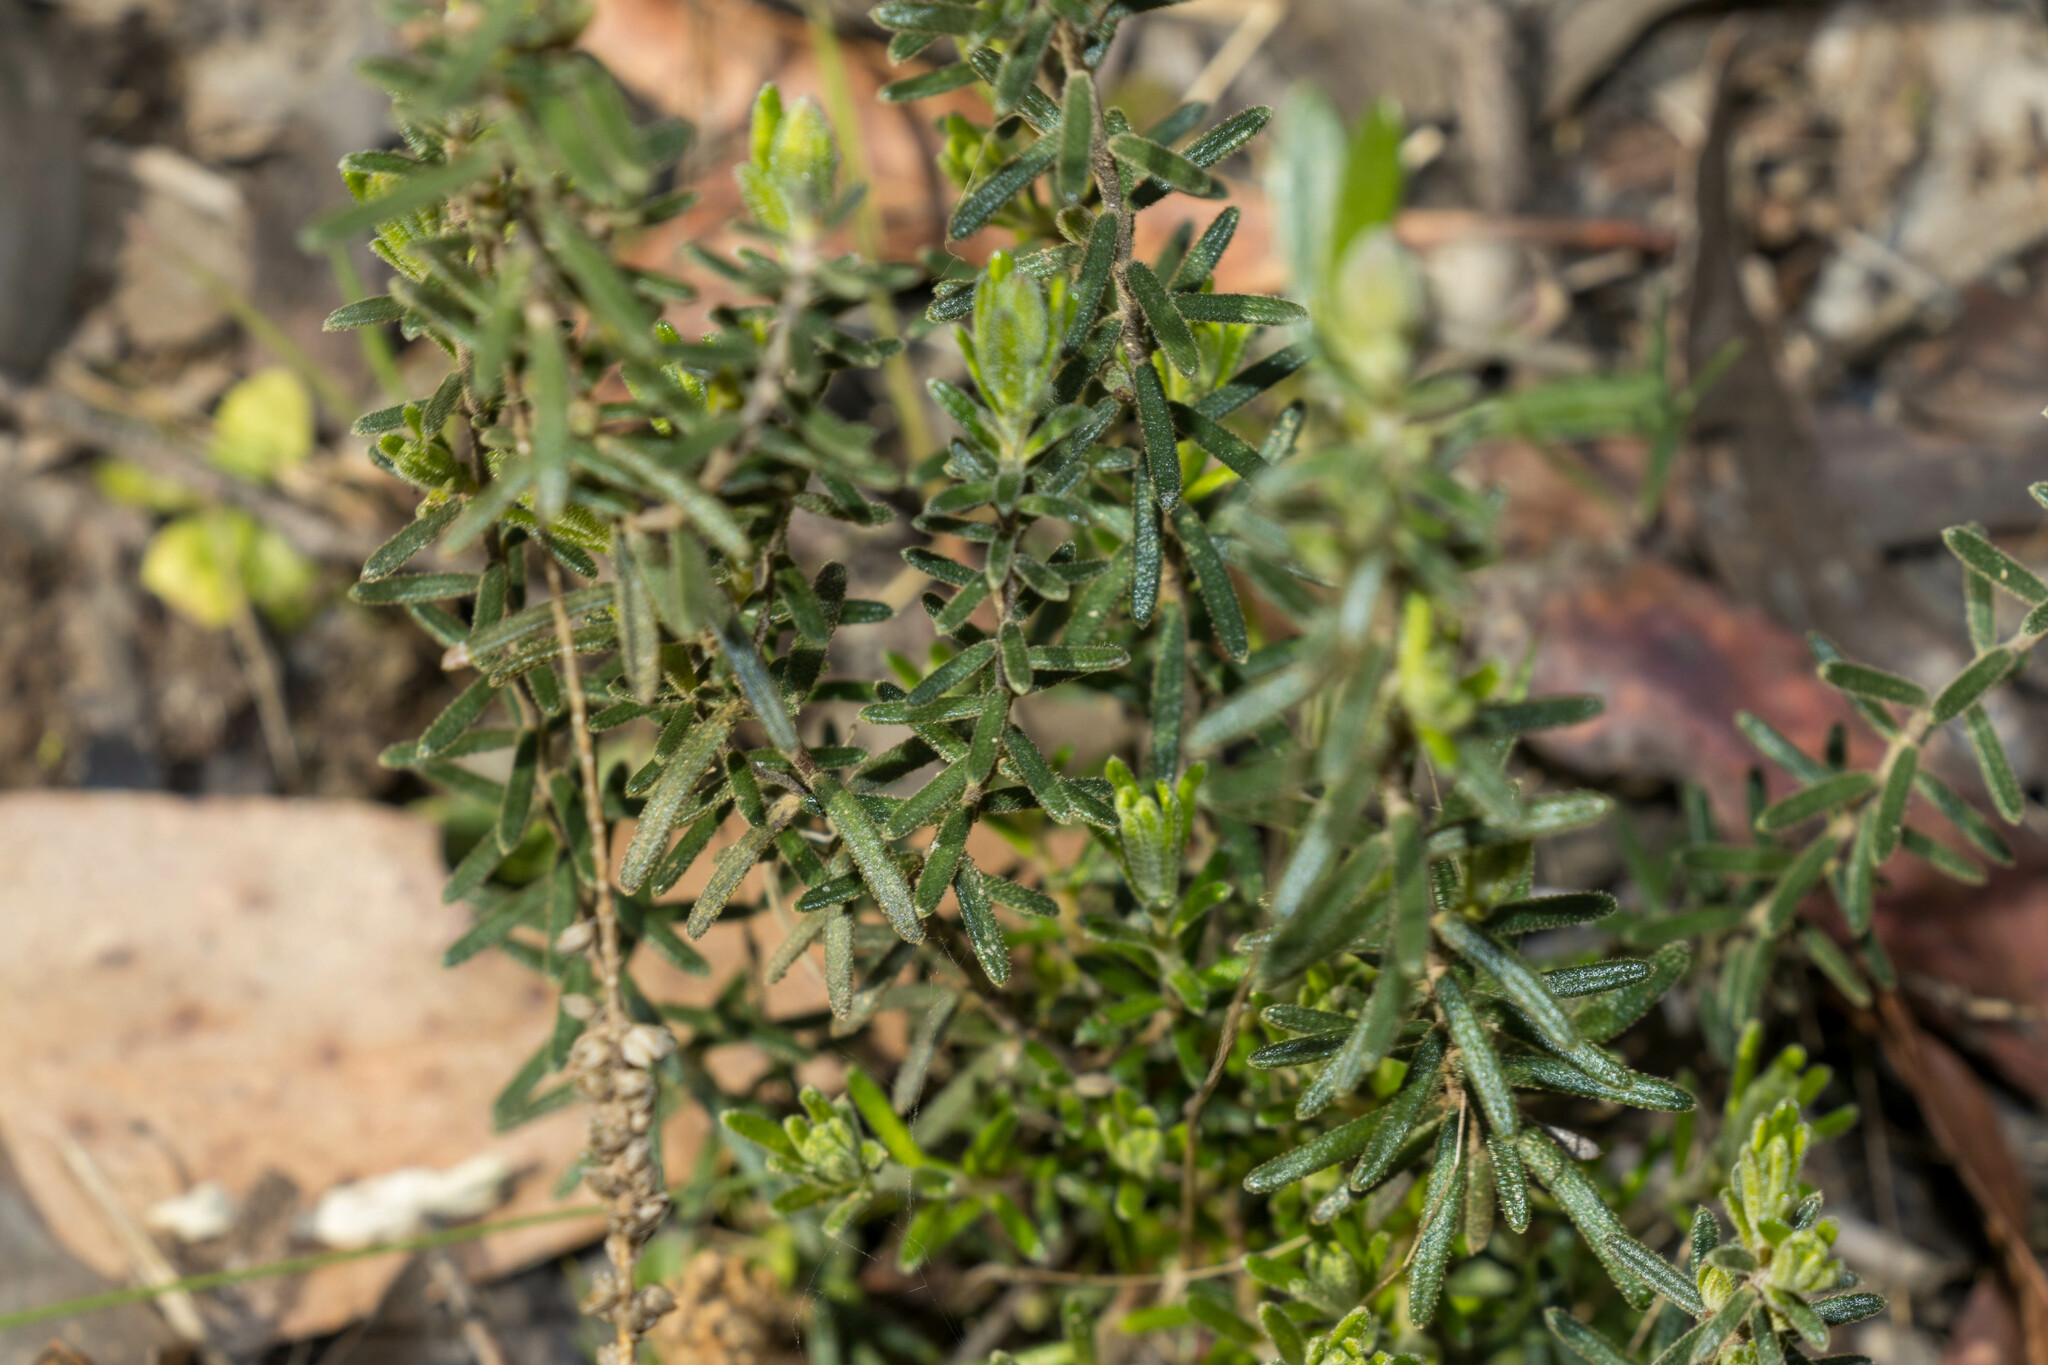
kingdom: Plantae
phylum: Tracheophyta
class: Magnoliopsida
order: Dilleniales
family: Dilleniaceae
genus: Hibbertia
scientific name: Hibbertia riparia
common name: Erect guinea-flower
